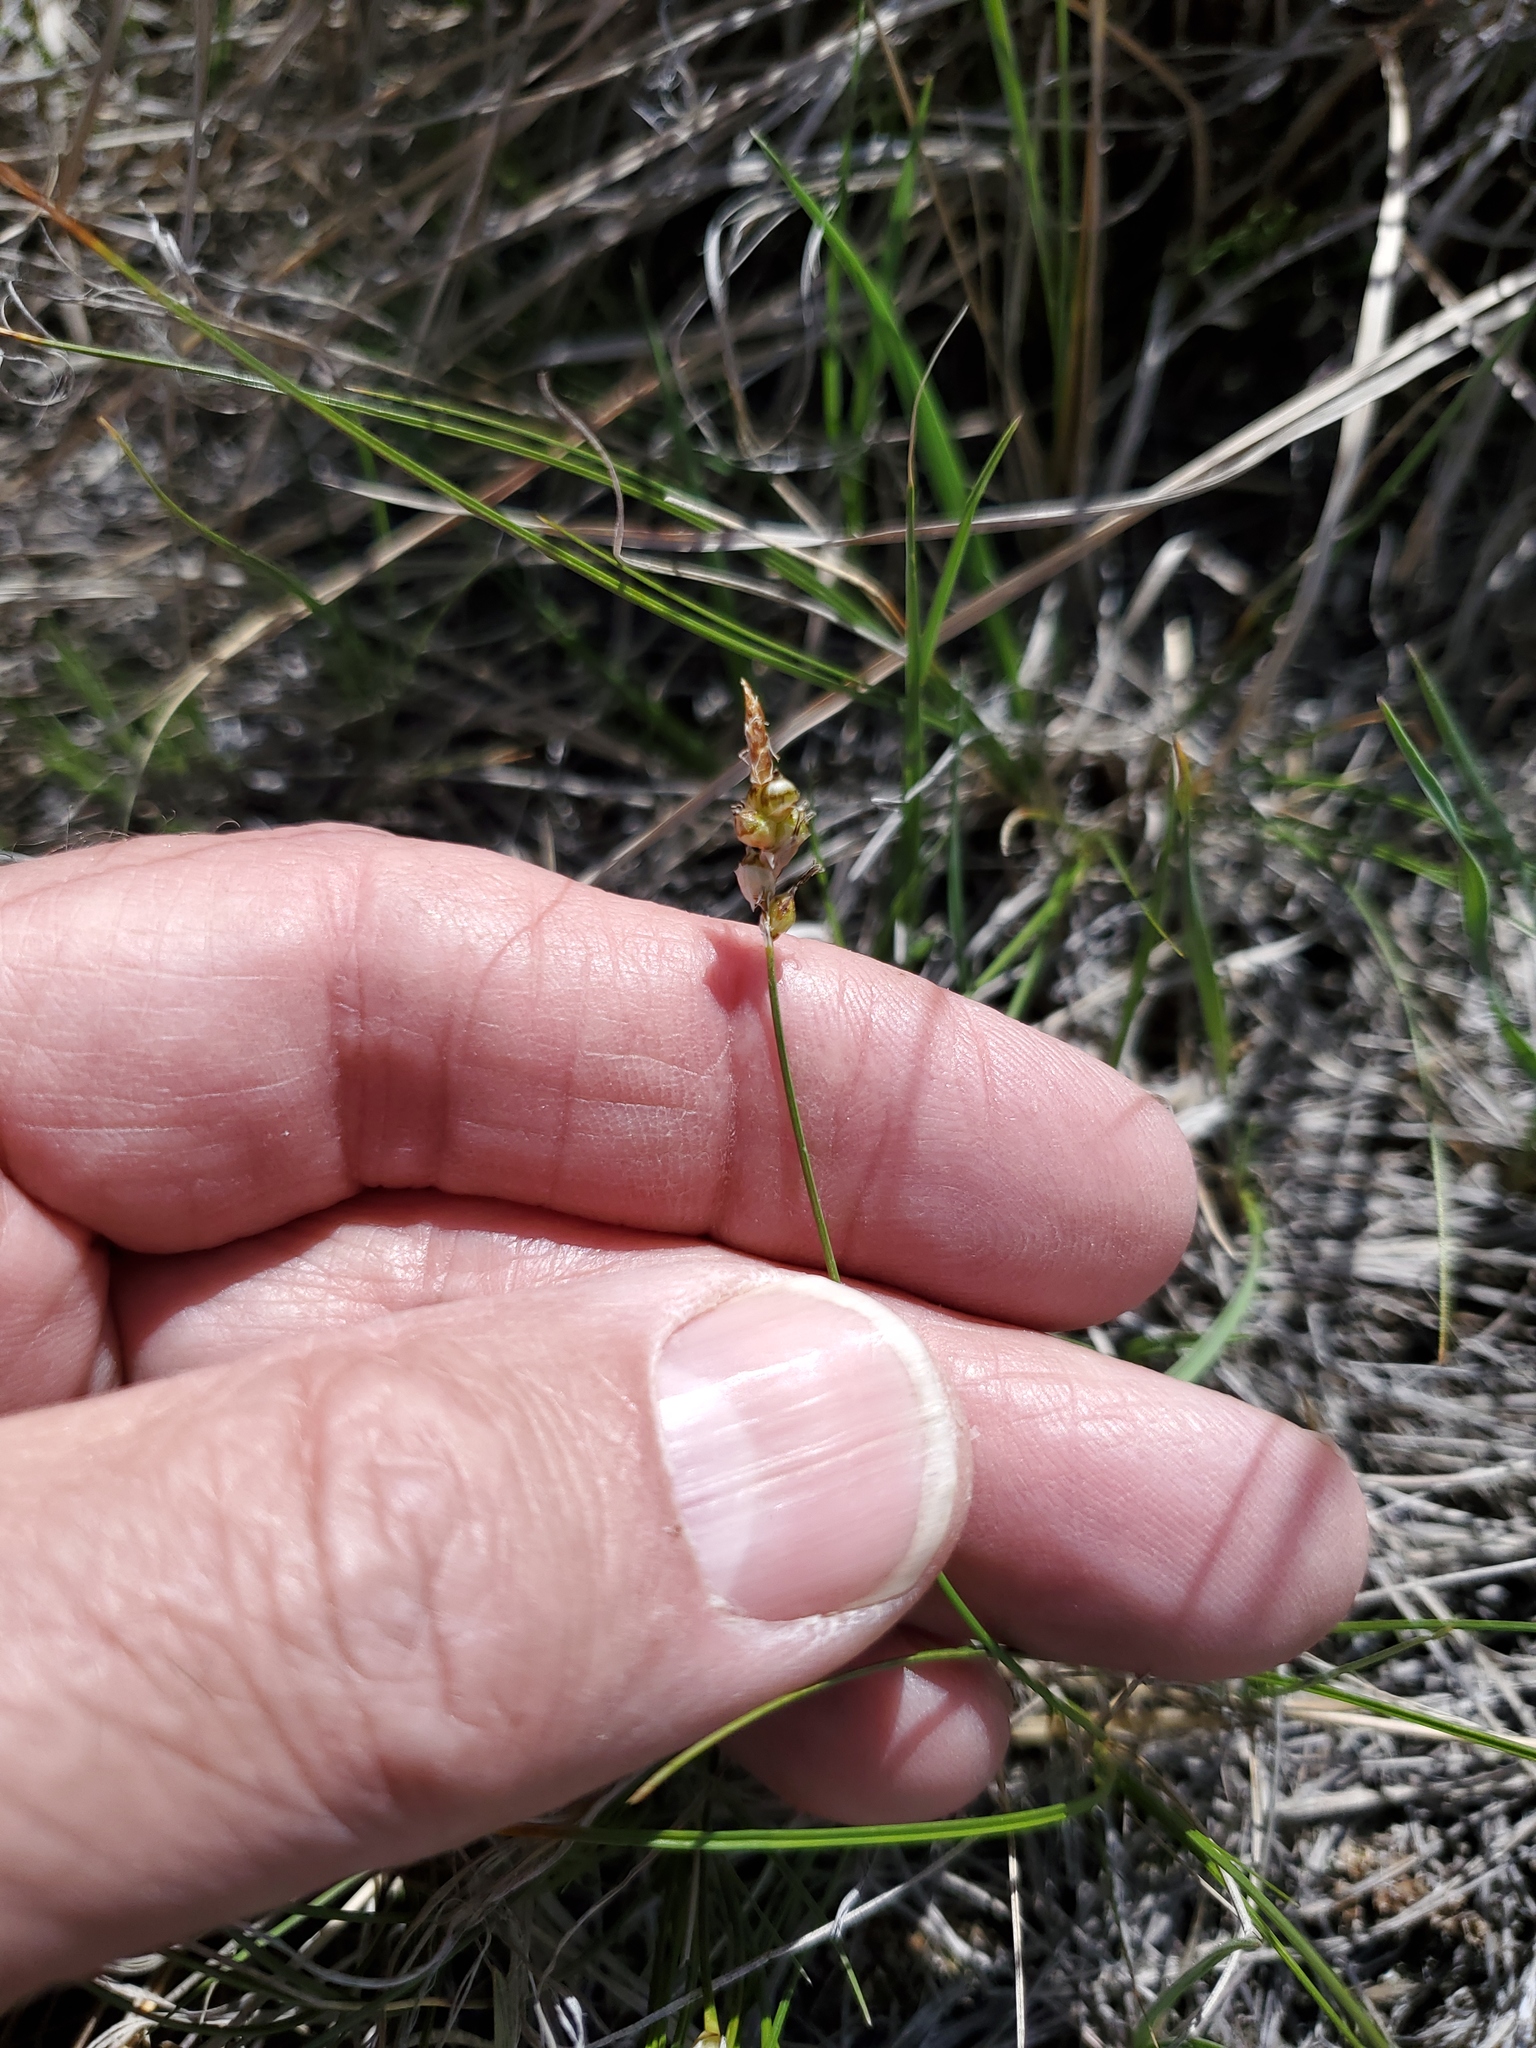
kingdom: Plantae
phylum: Tracheophyta
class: Liliopsida
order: Poales
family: Cyperaceae
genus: Carex
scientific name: Carex filifolia
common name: Threadleaf sedge
